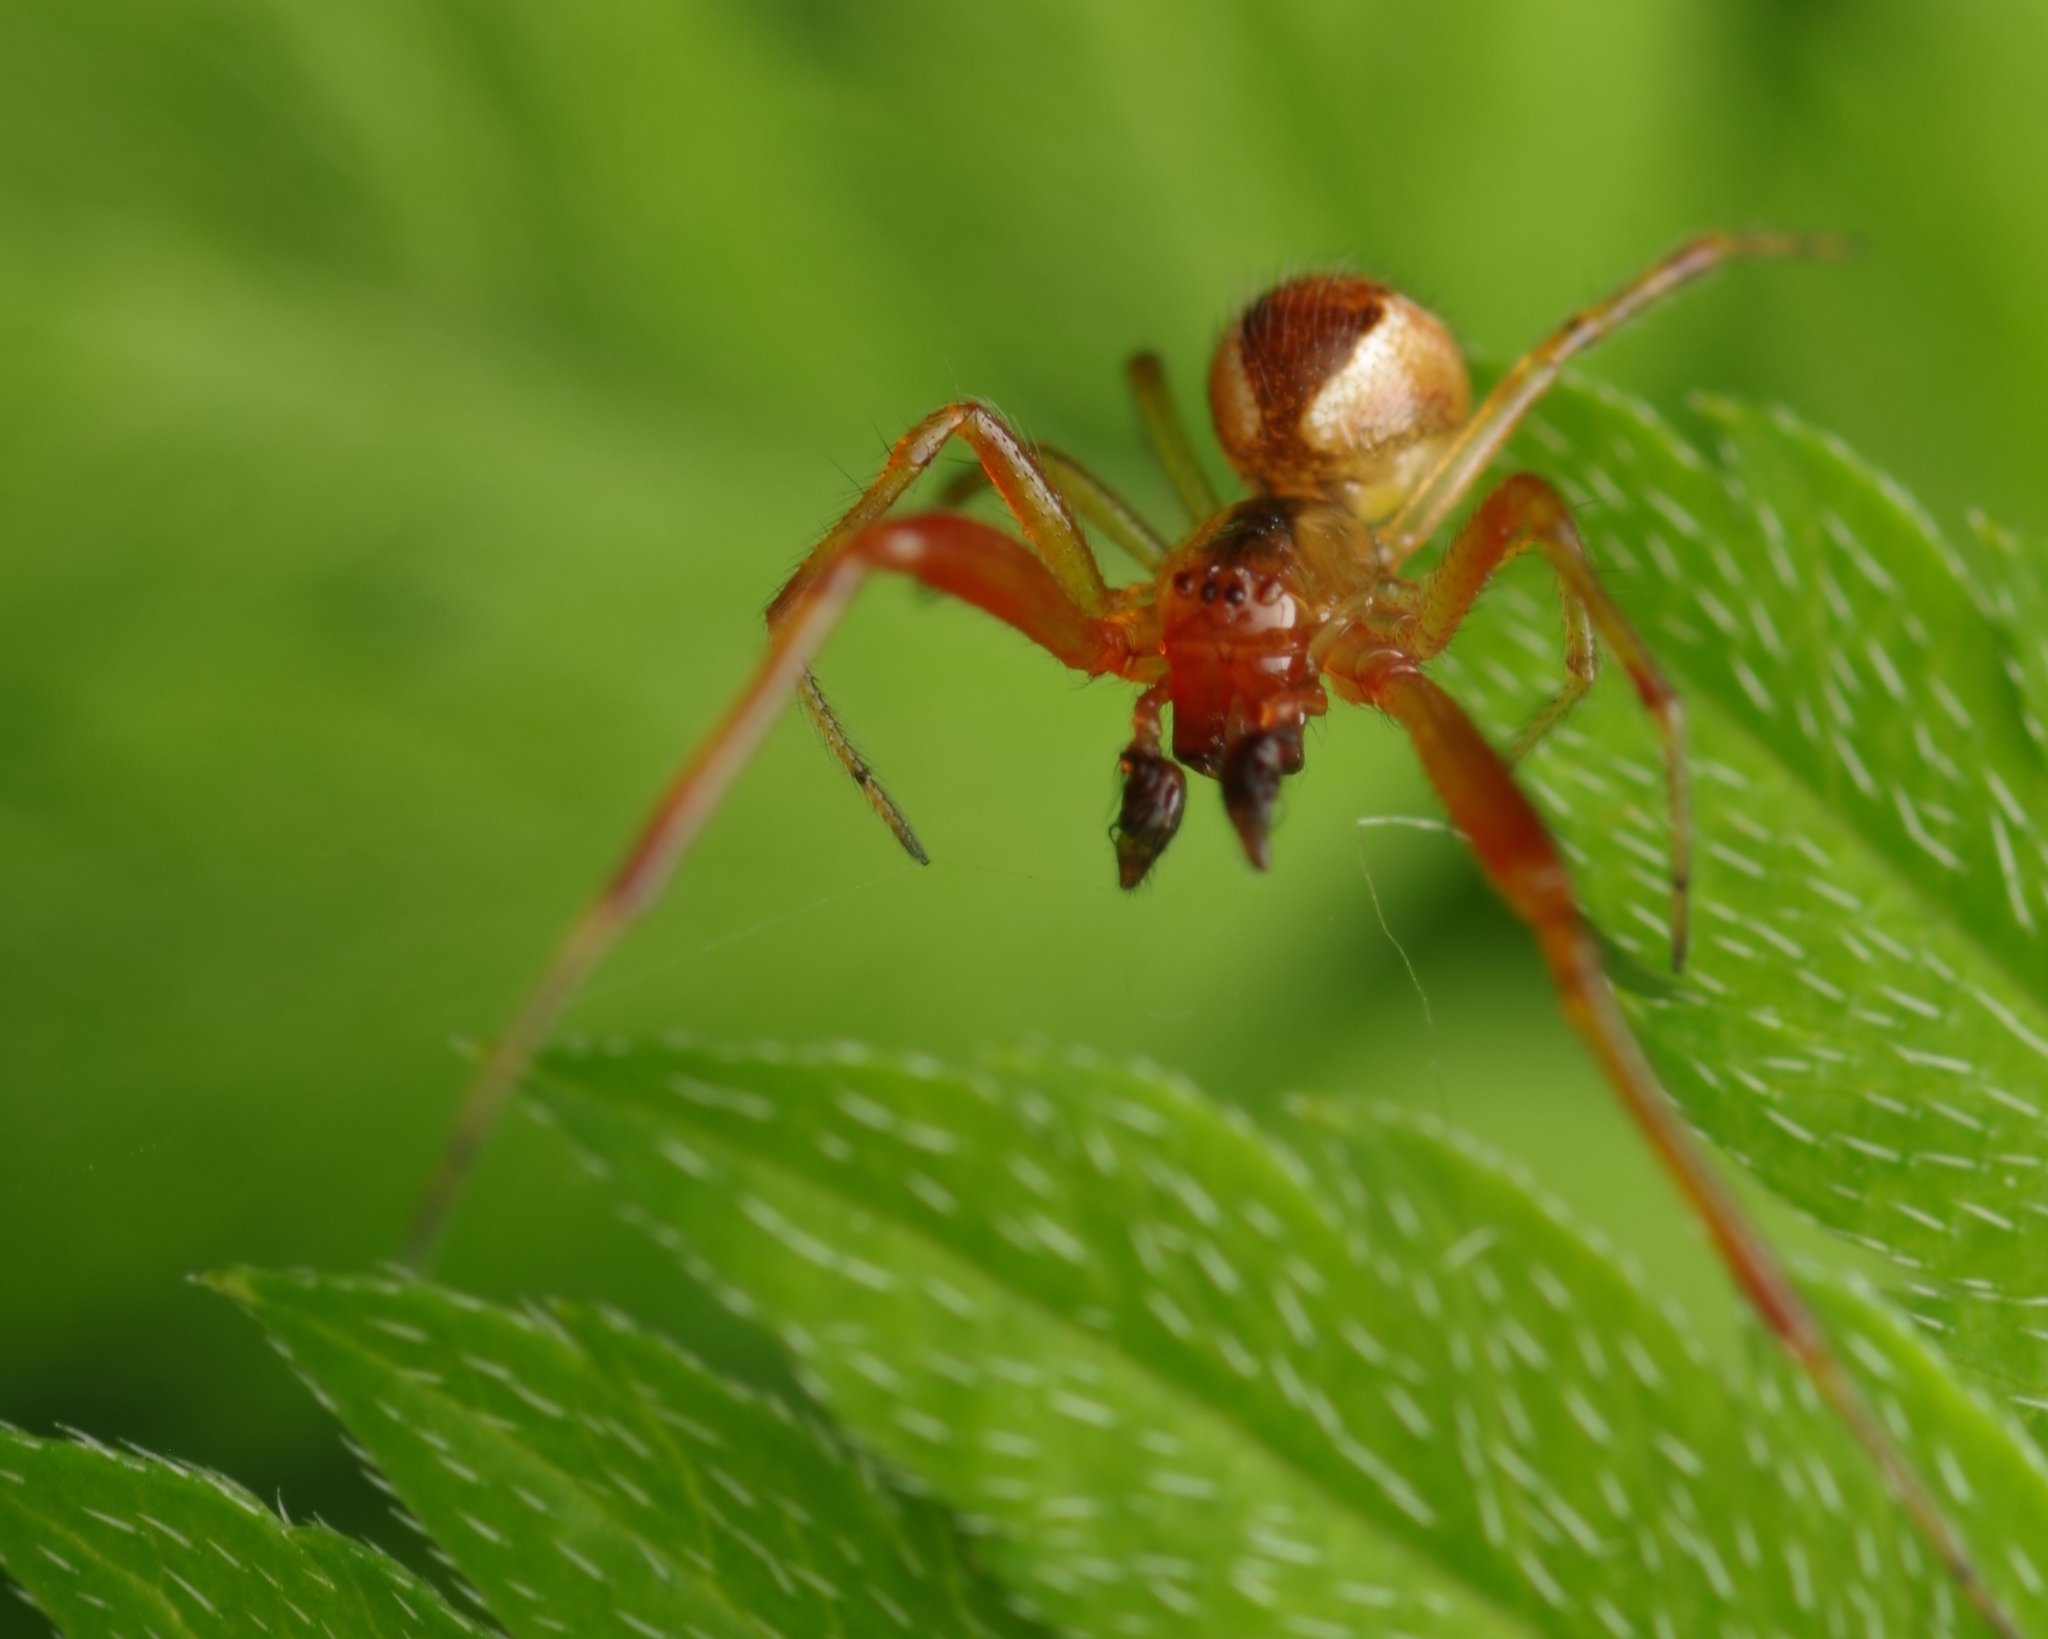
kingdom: Animalia
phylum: Arthropoda
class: Arachnida
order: Araneae
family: Theridiidae
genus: Anelosimus
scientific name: Anelosimus vittatus
